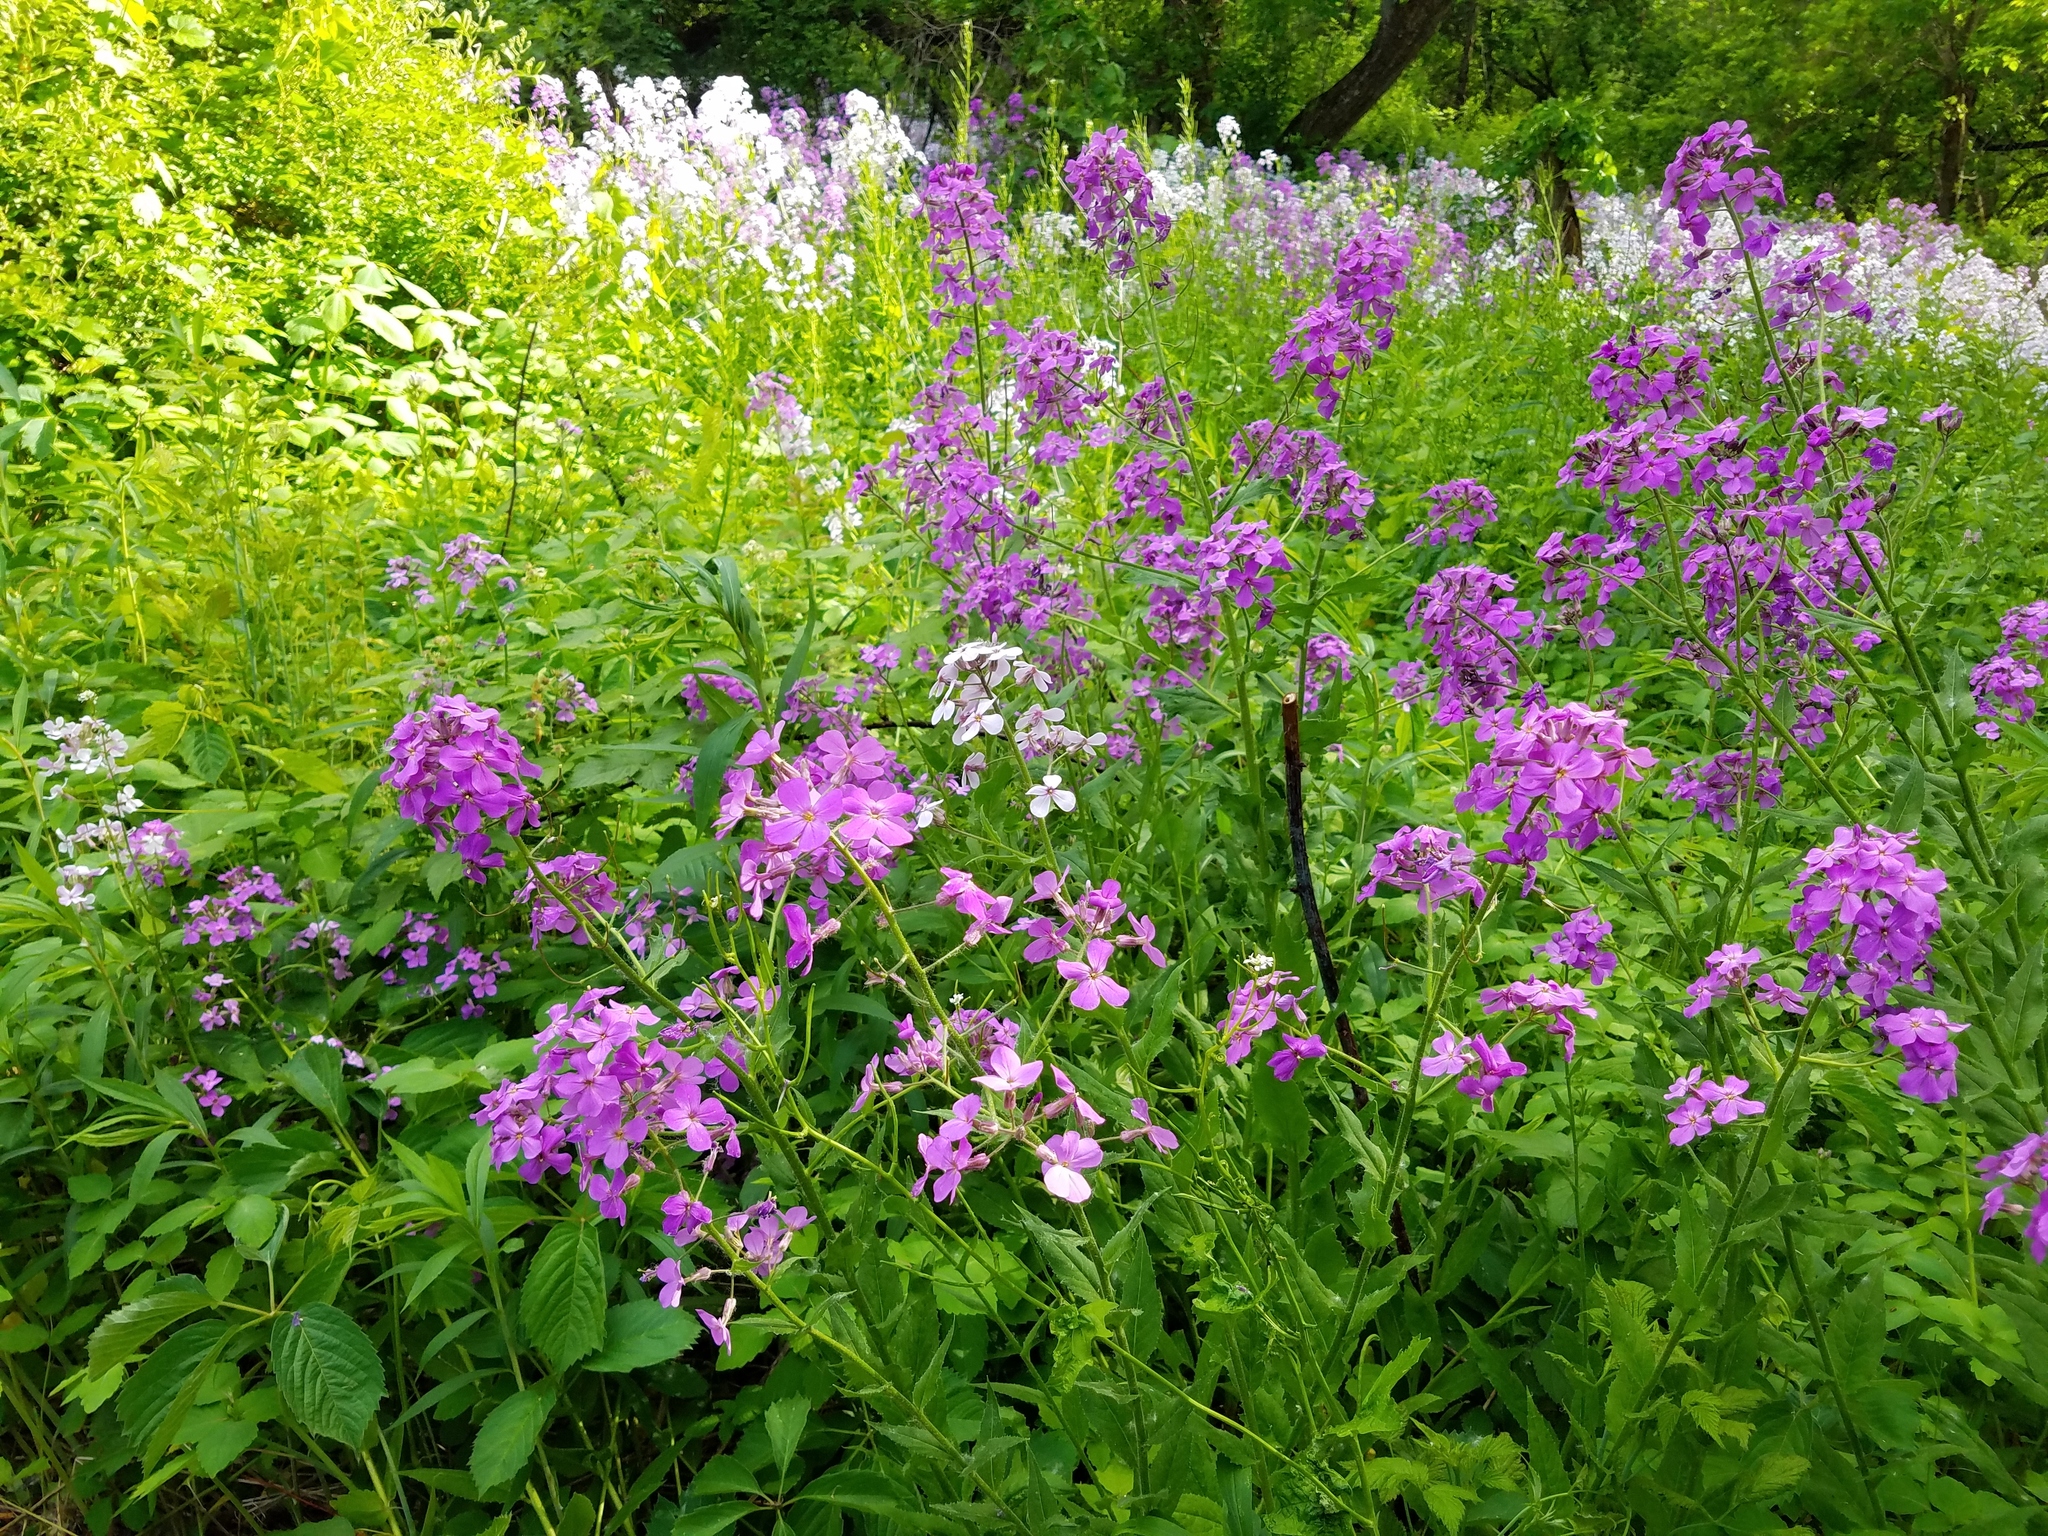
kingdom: Plantae
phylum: Tracheophyta
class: Magnoliopsida
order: Brassicales
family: Brassicaceae
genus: Hesperis
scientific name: Hesperis matronalis
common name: Dame's-violet
